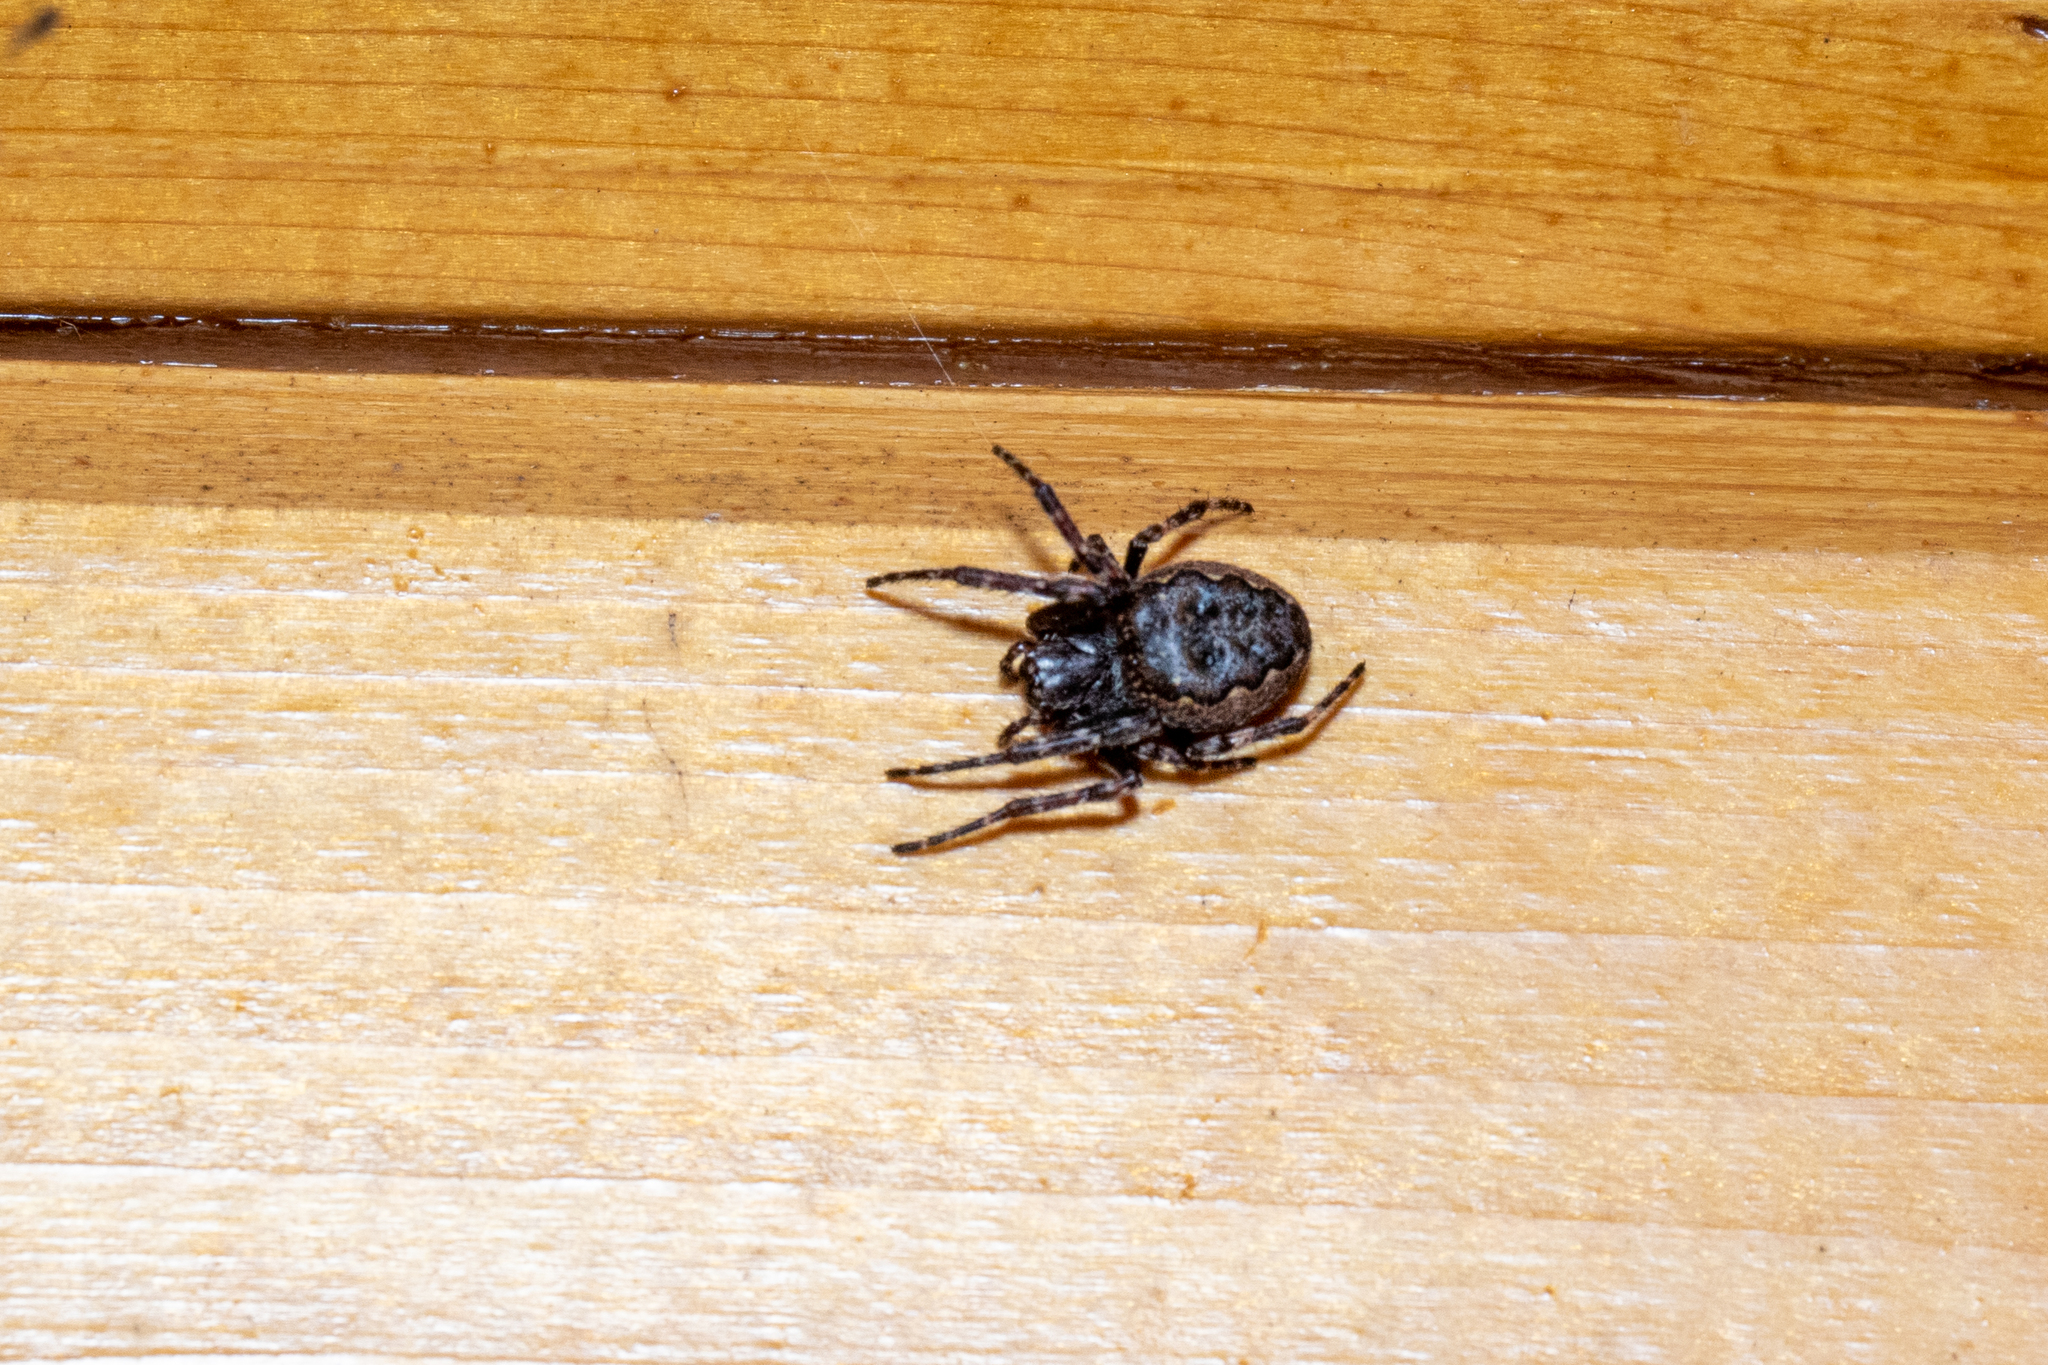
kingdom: Animalia
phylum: Arthropoda
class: Arachnida
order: Araneae
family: Araneidae
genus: Nuctenea
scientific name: Nuctenea umbratica
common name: Toad spider
